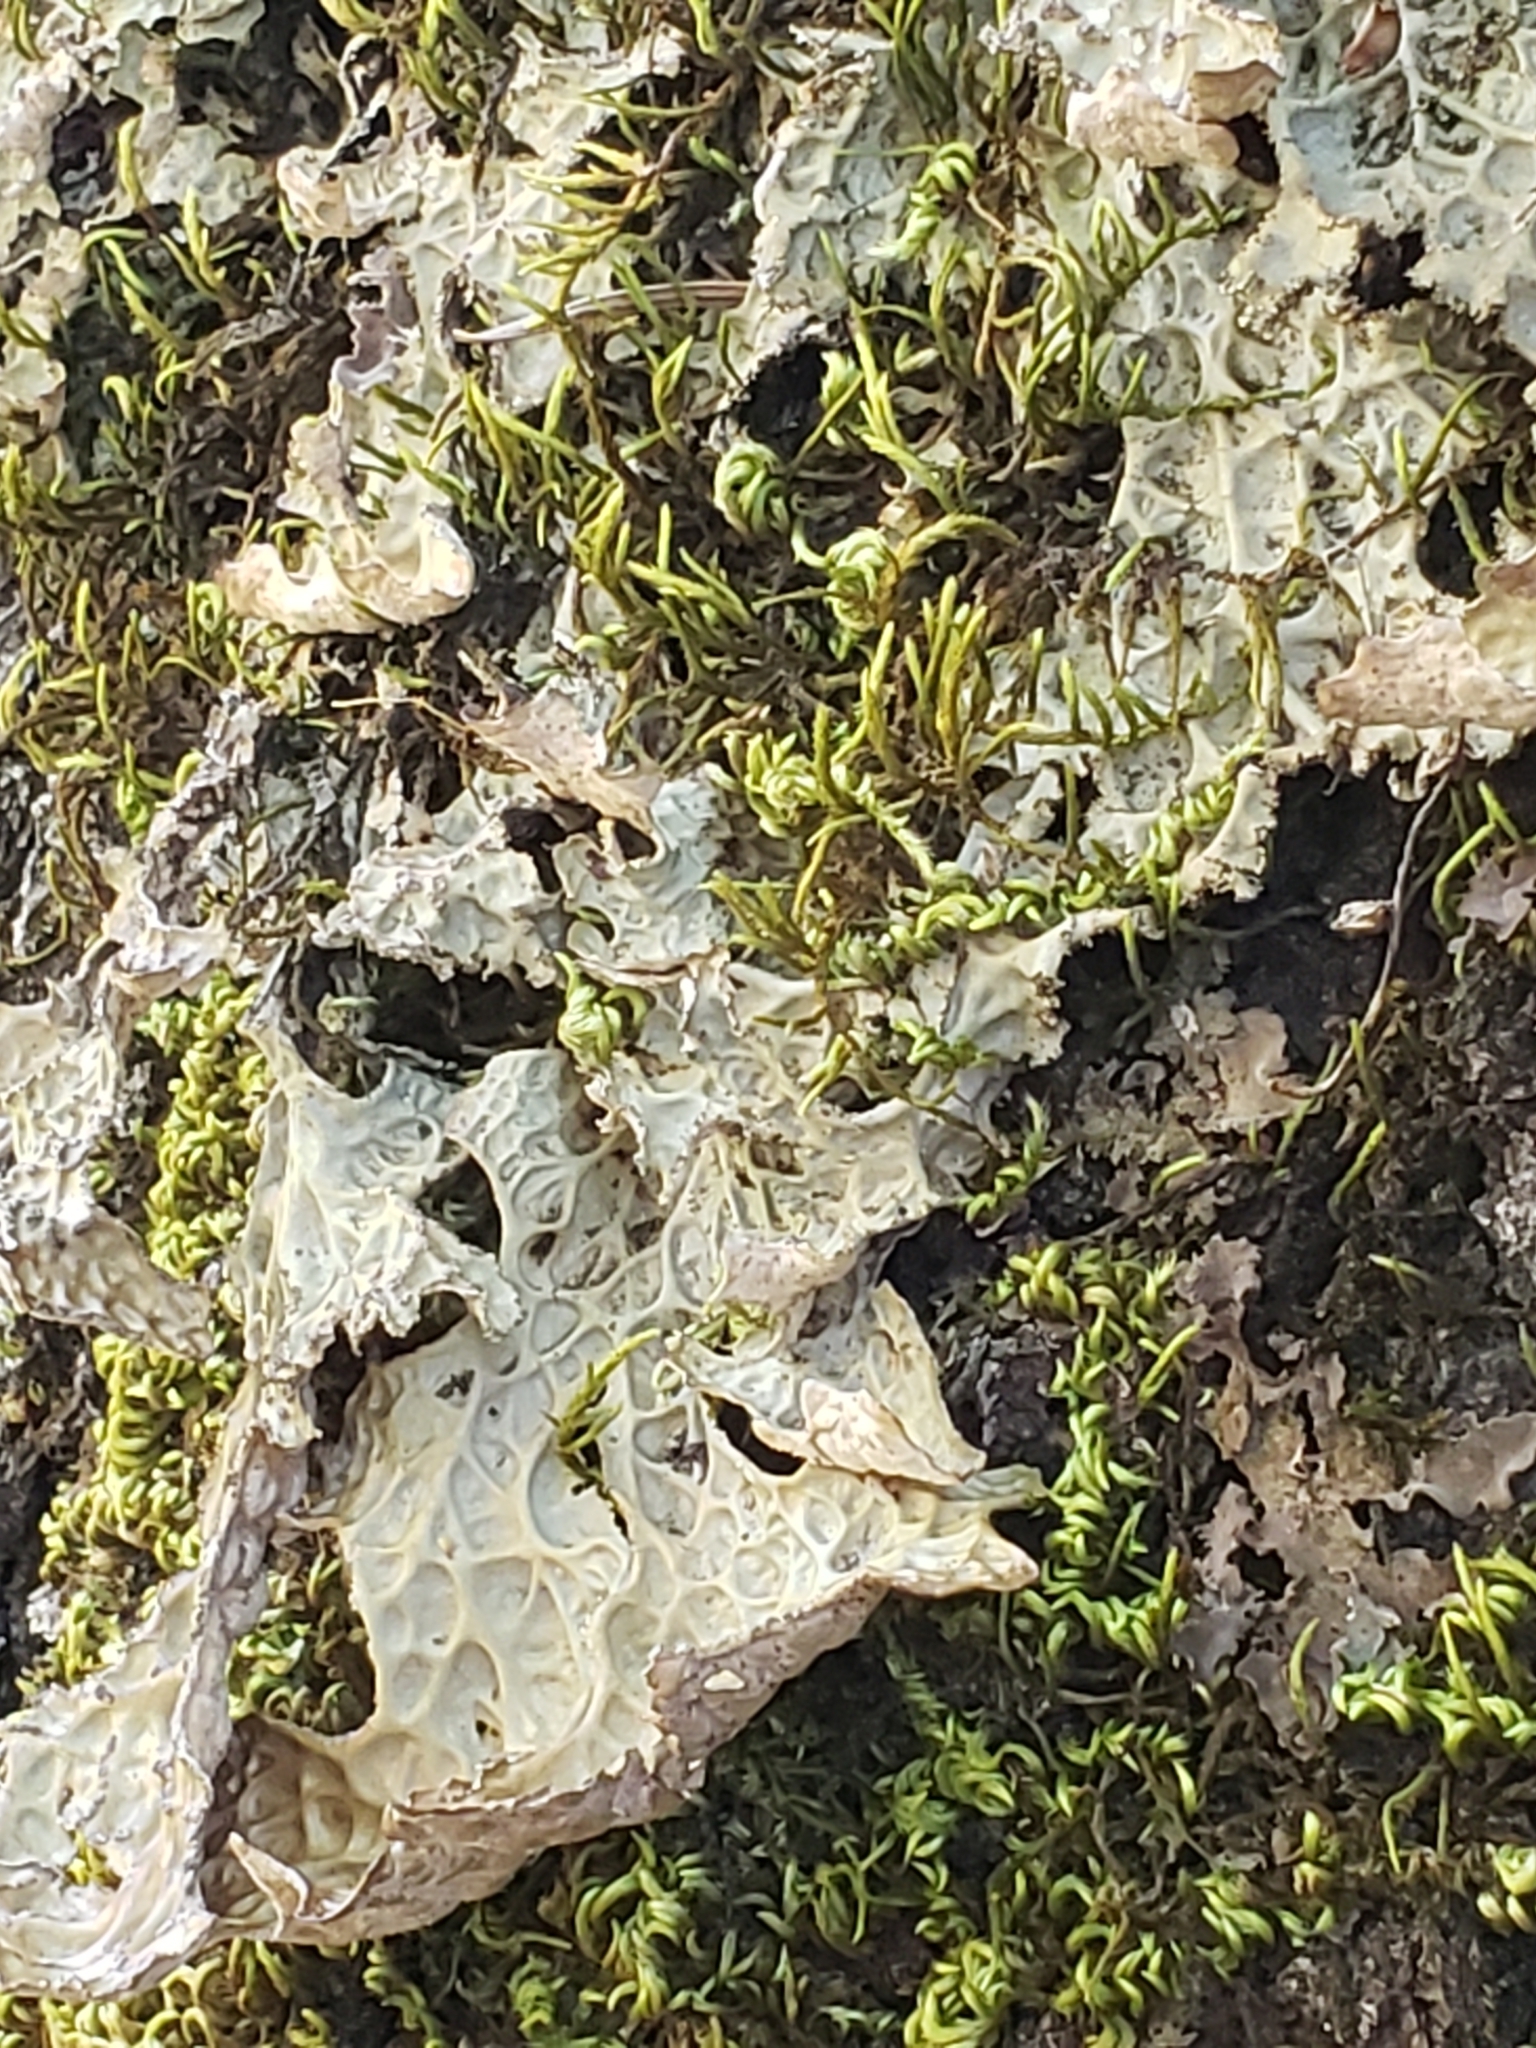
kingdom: Fungi
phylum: Ascomycota
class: Lecanoromycetes
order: Peltigerales
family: Lobariaceae
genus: Lobaria
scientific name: Lobaria pulmonaria
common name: Lungwort
